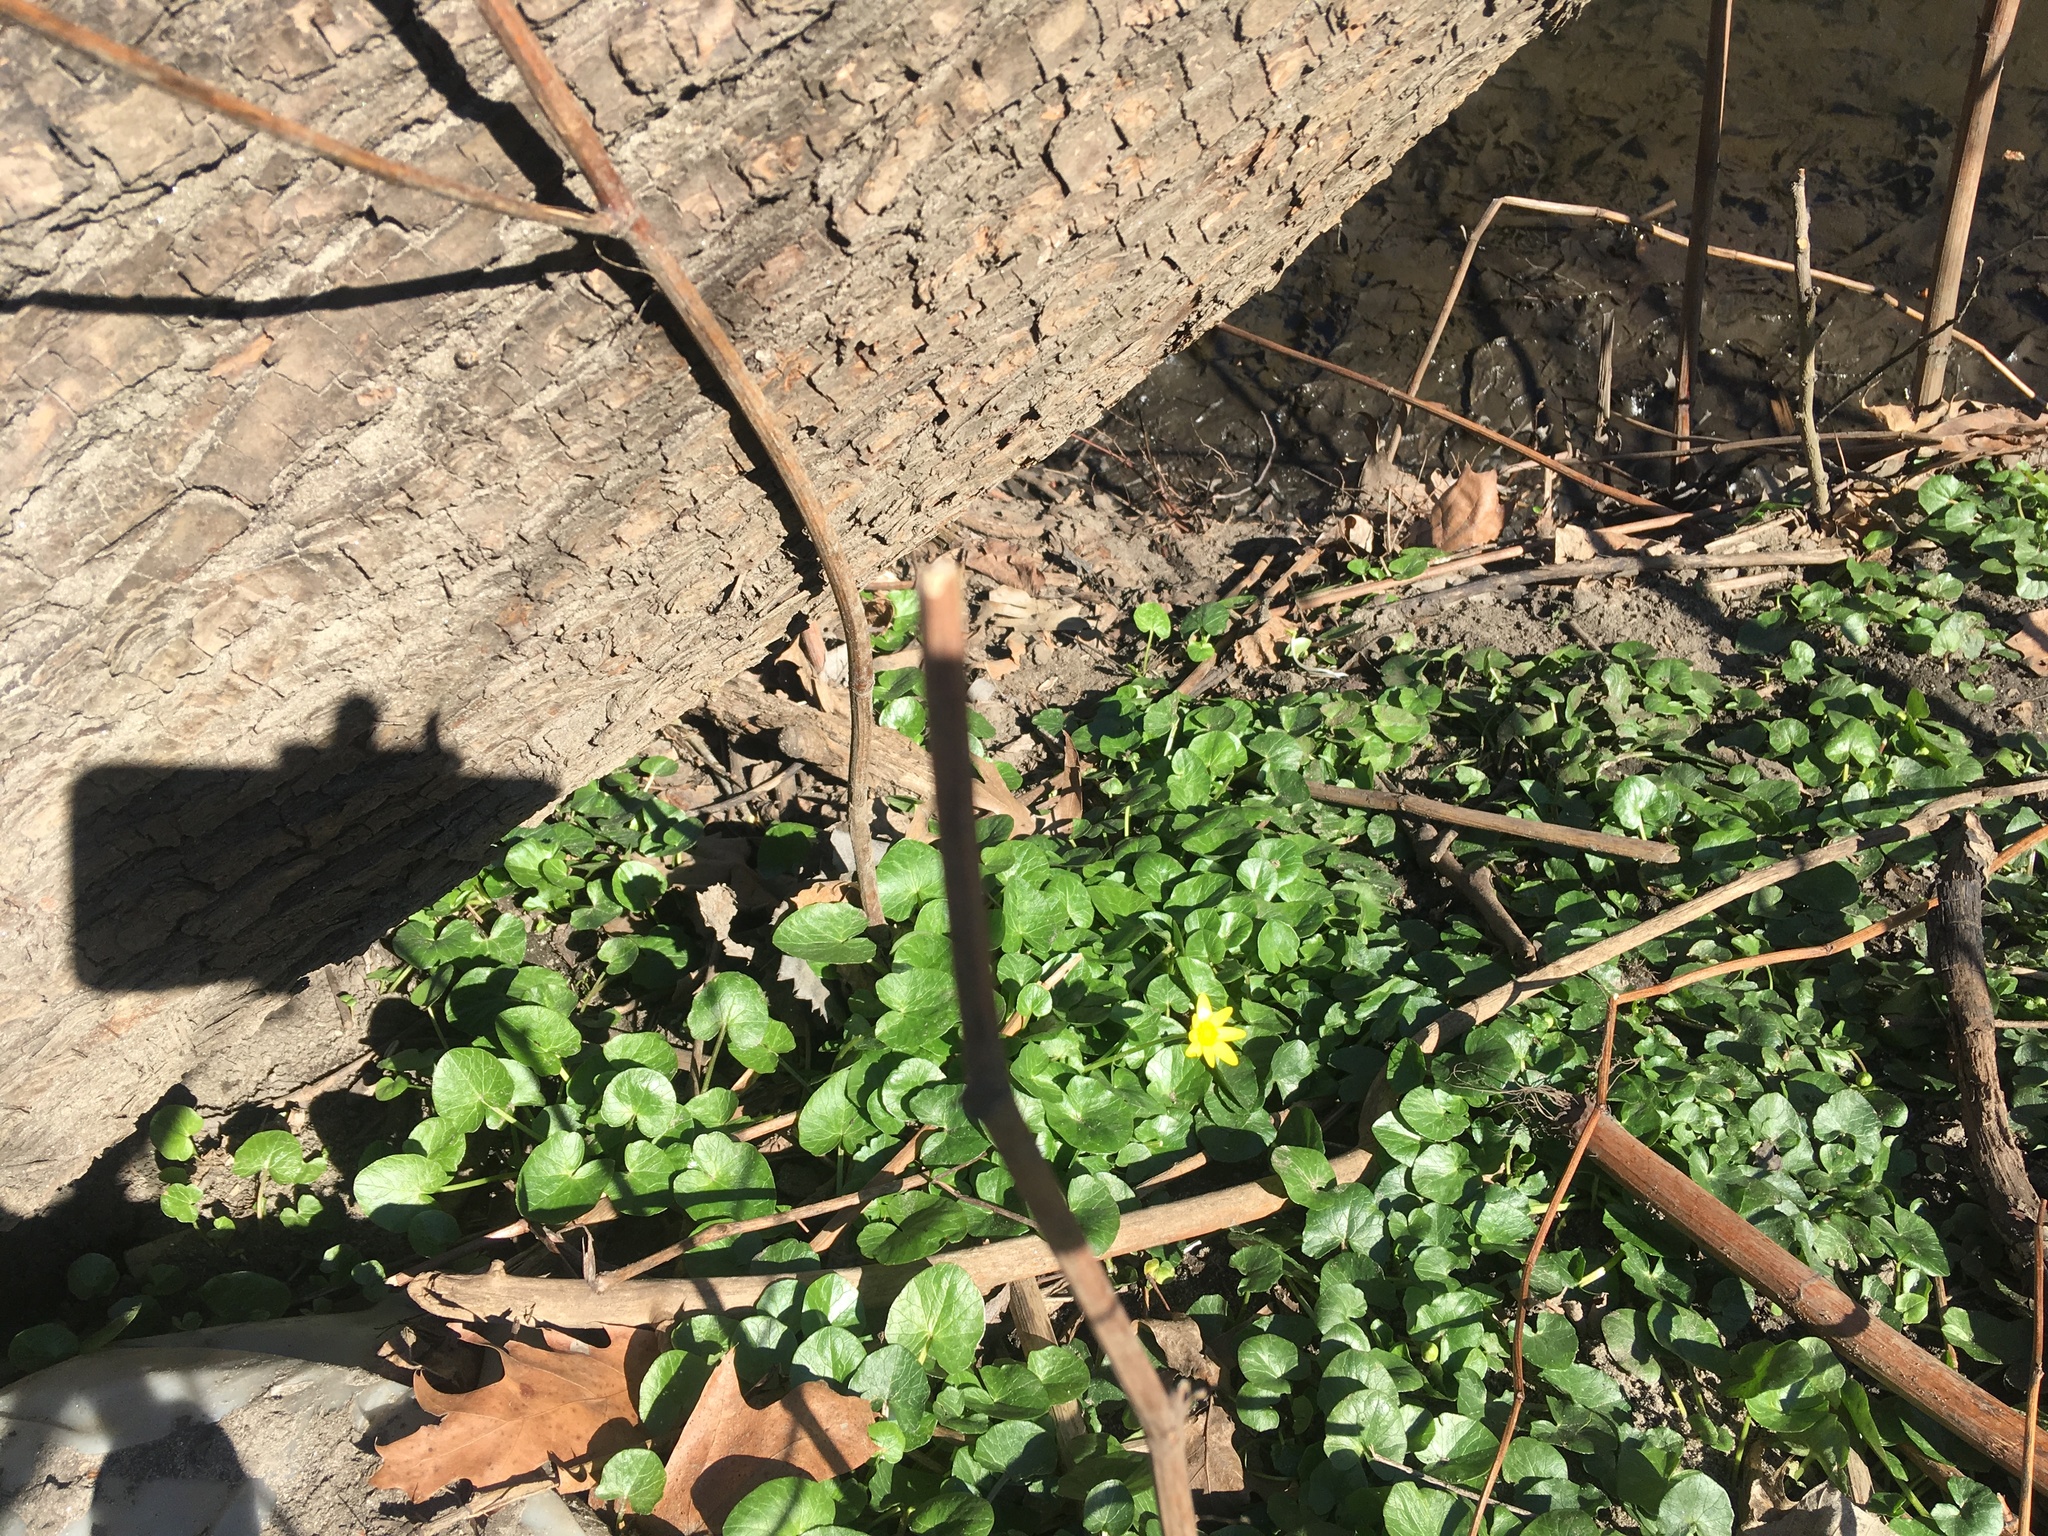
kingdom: Plantae
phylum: Tracheophyta
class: Magnoliopsida
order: Ranunculales
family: Ranunculaceae
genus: Ficaria
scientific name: Ficaria verna
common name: Lesser celandine
